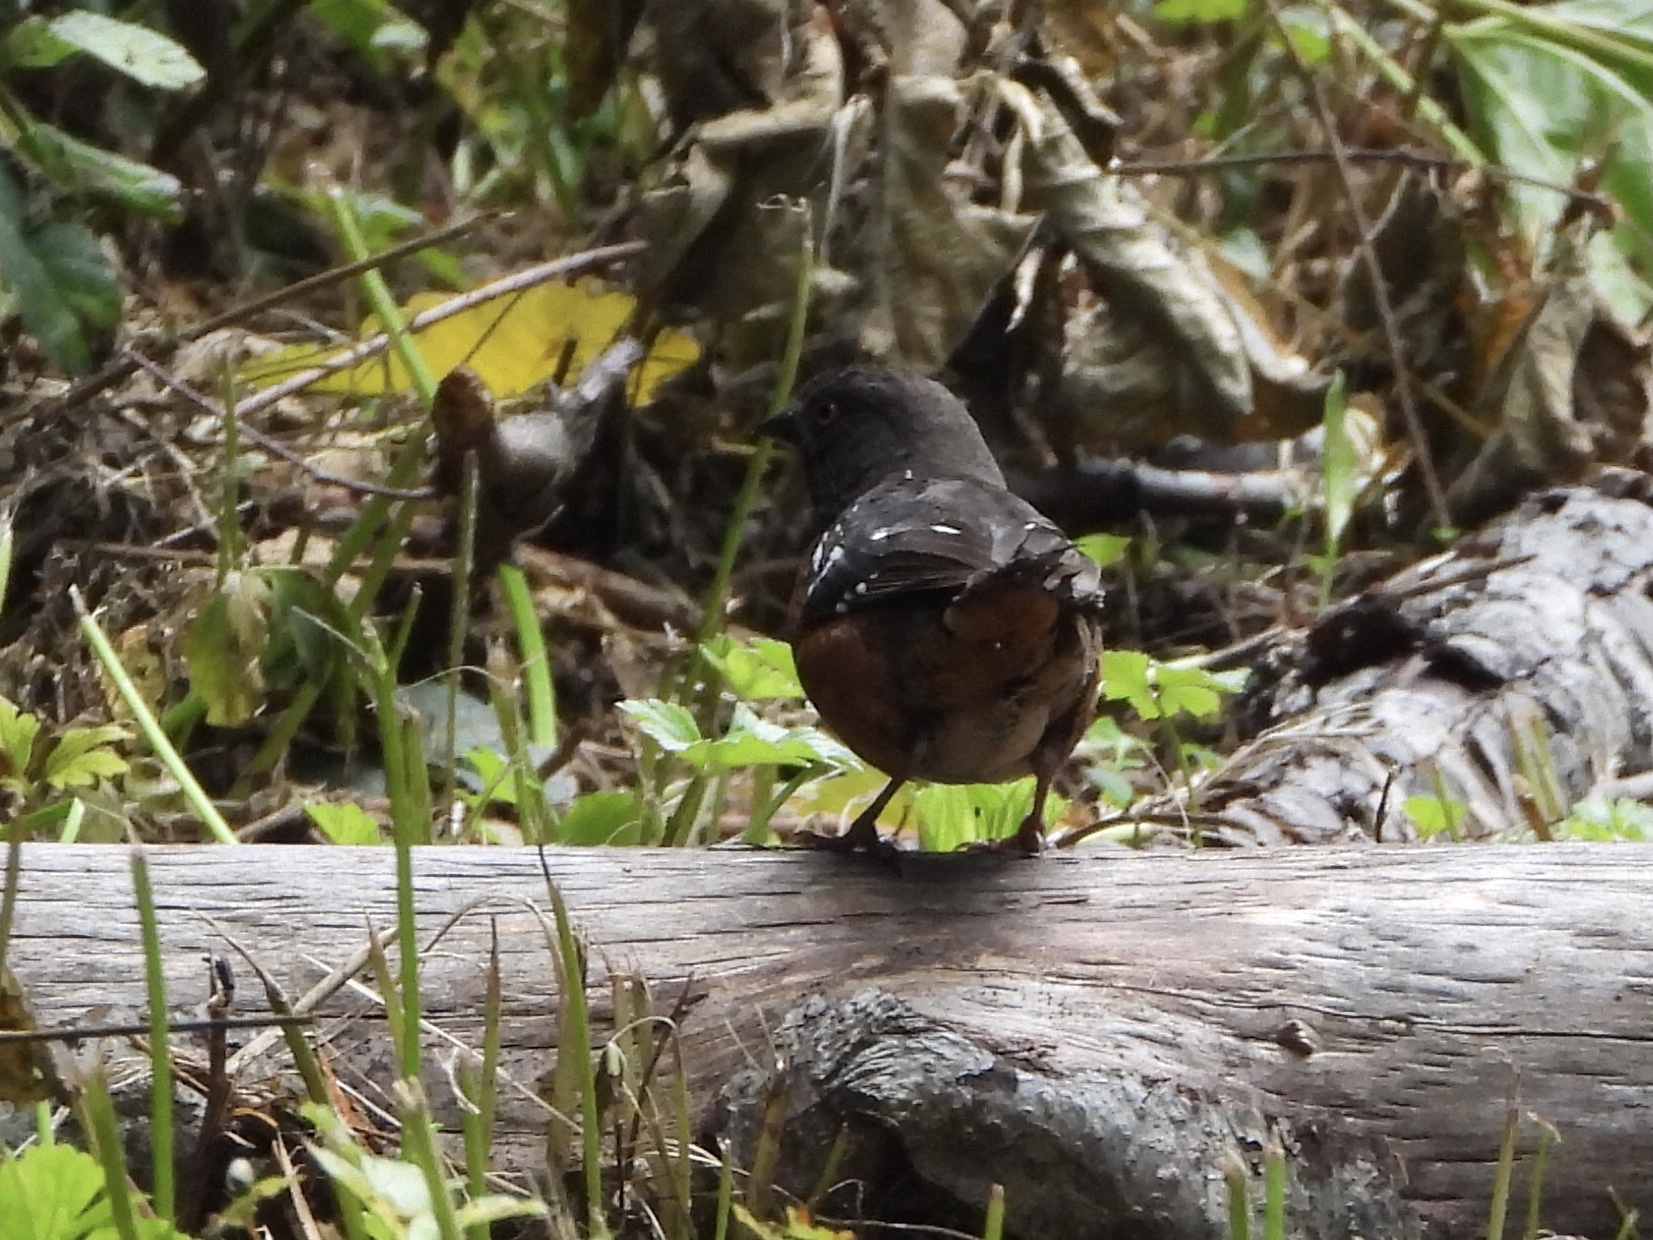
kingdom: Animalia
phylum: Chordata
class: Aves
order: Passeriformes
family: Passerellidae
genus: Pipilo
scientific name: Pipilo maculatus
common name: Spotted towhee
